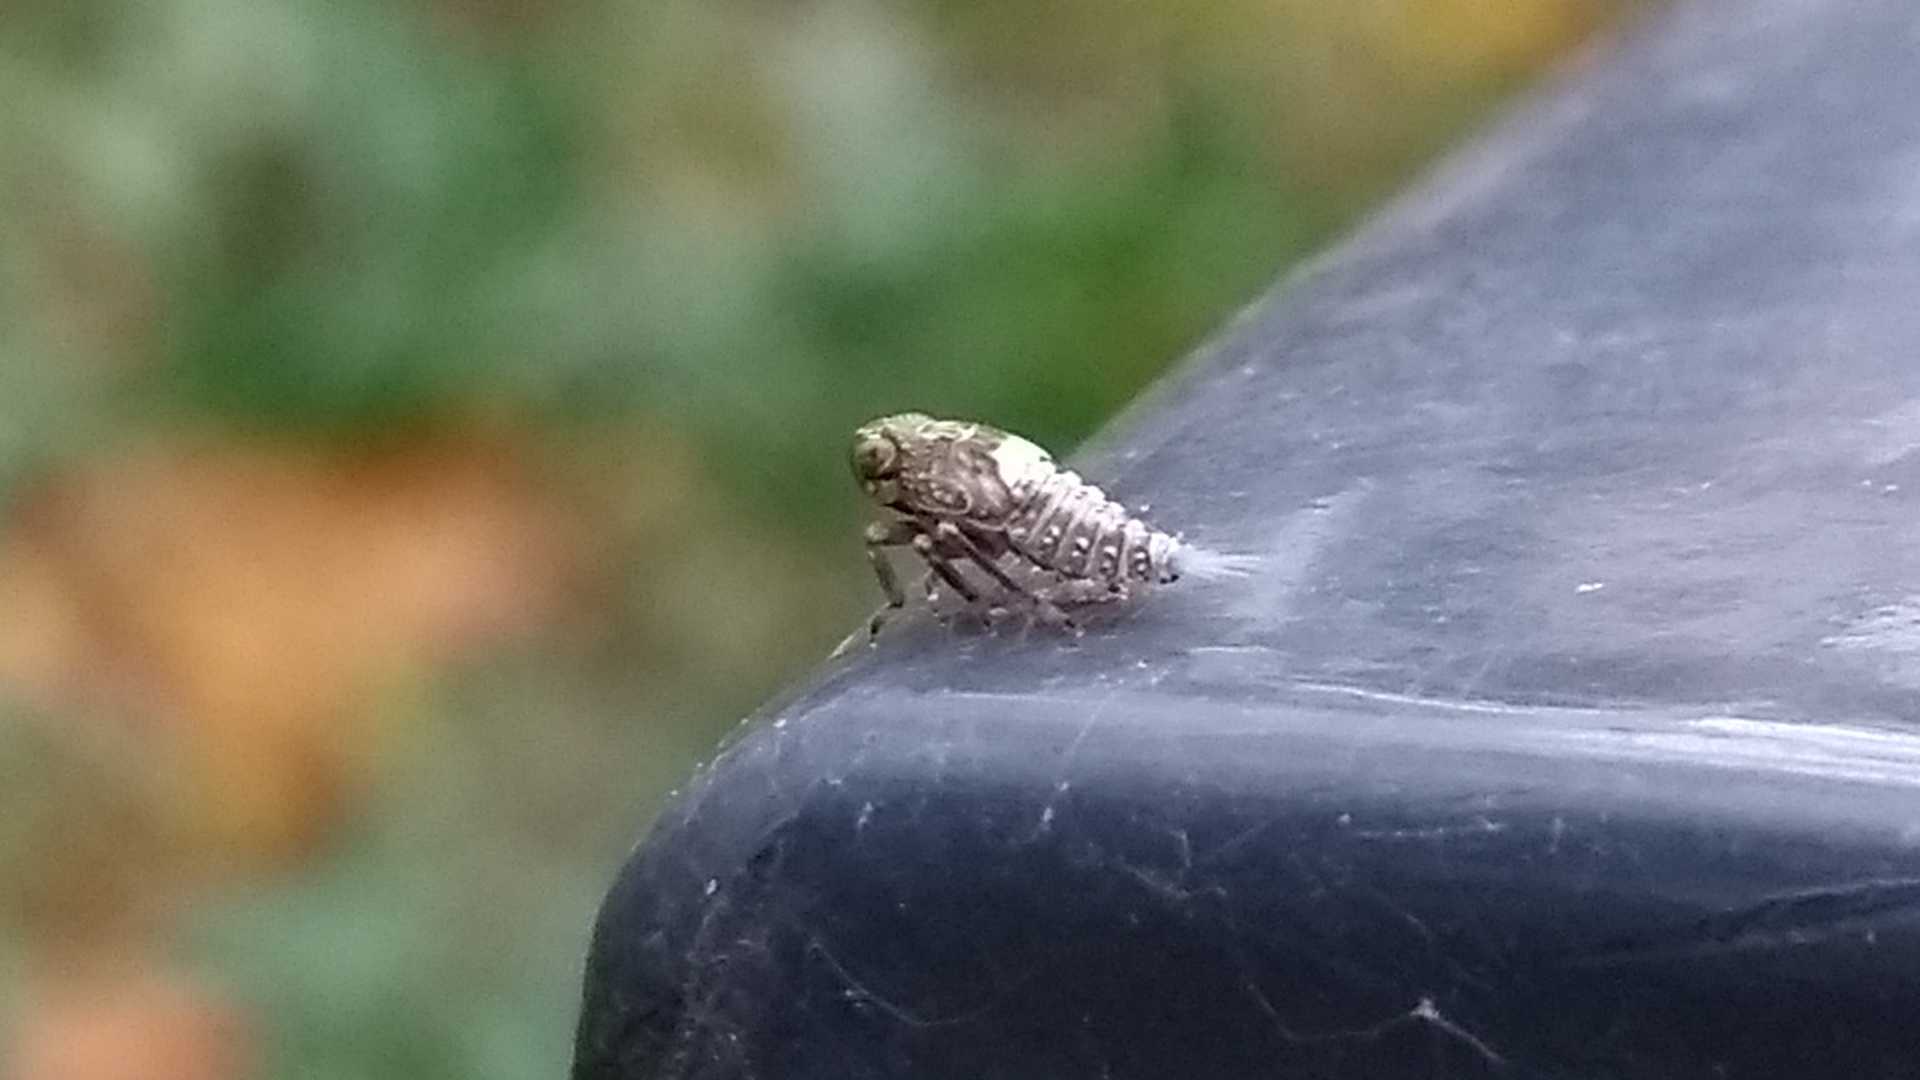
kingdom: Animalia
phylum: Arthropoda
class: Insecta
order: Hemiptera
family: Issidae
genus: Issus
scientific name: Issus
